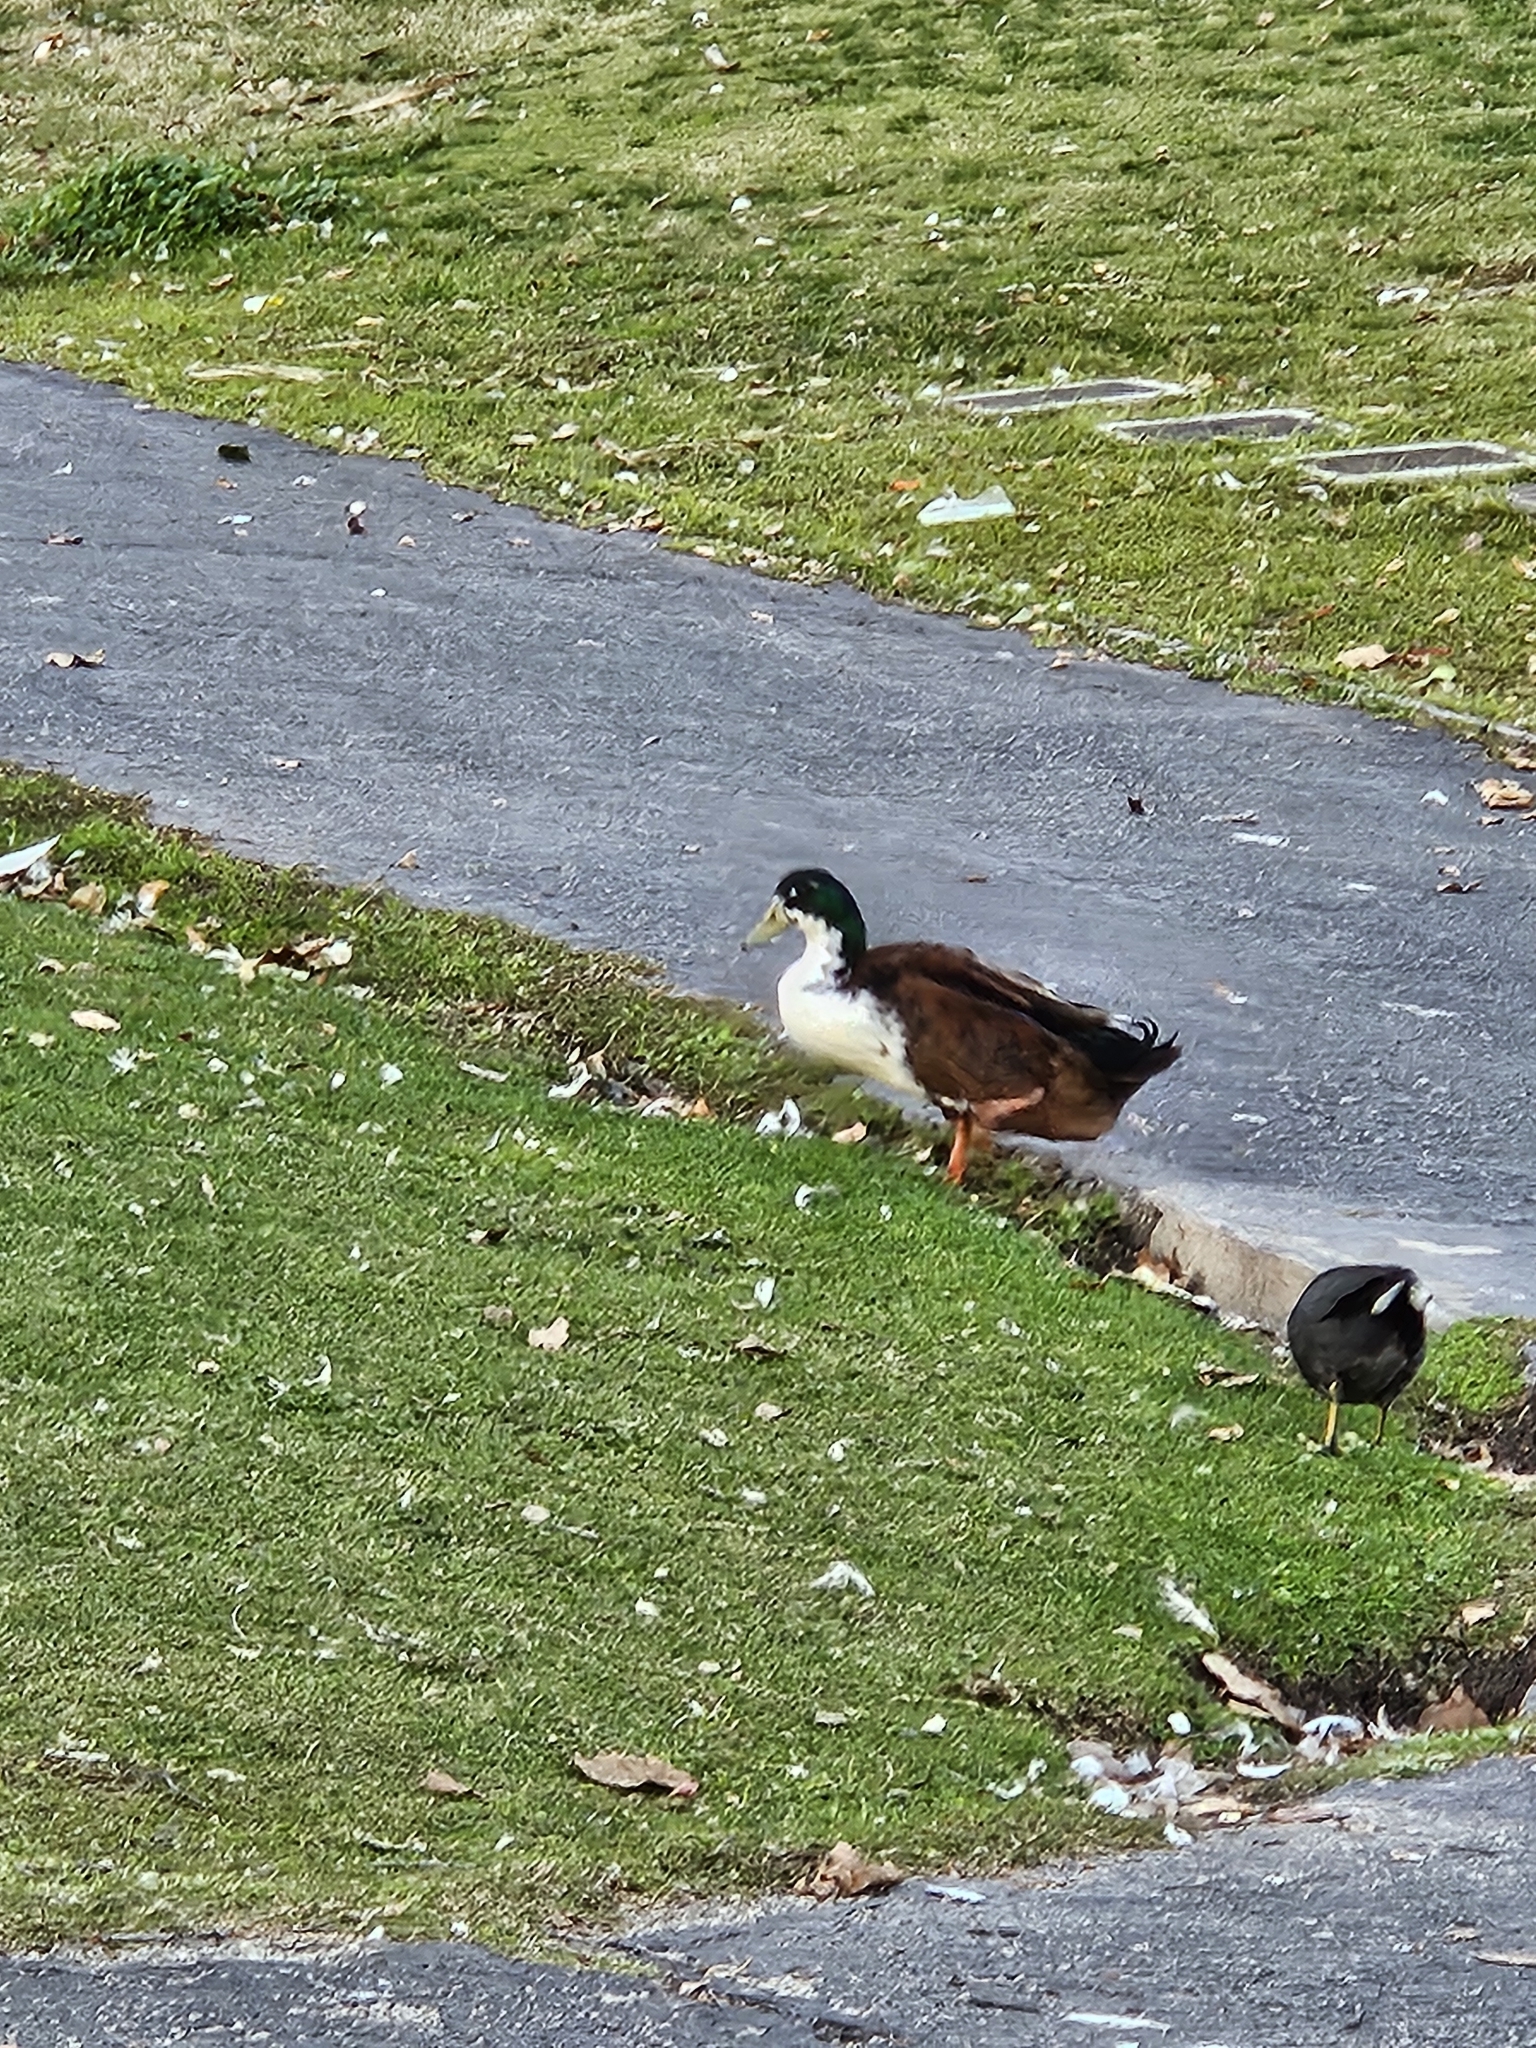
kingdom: Animalia
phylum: Chordata
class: Aves
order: Anseriformes
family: Anatidae
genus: Anas
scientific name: Anas platyrhynchos
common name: Mallard
